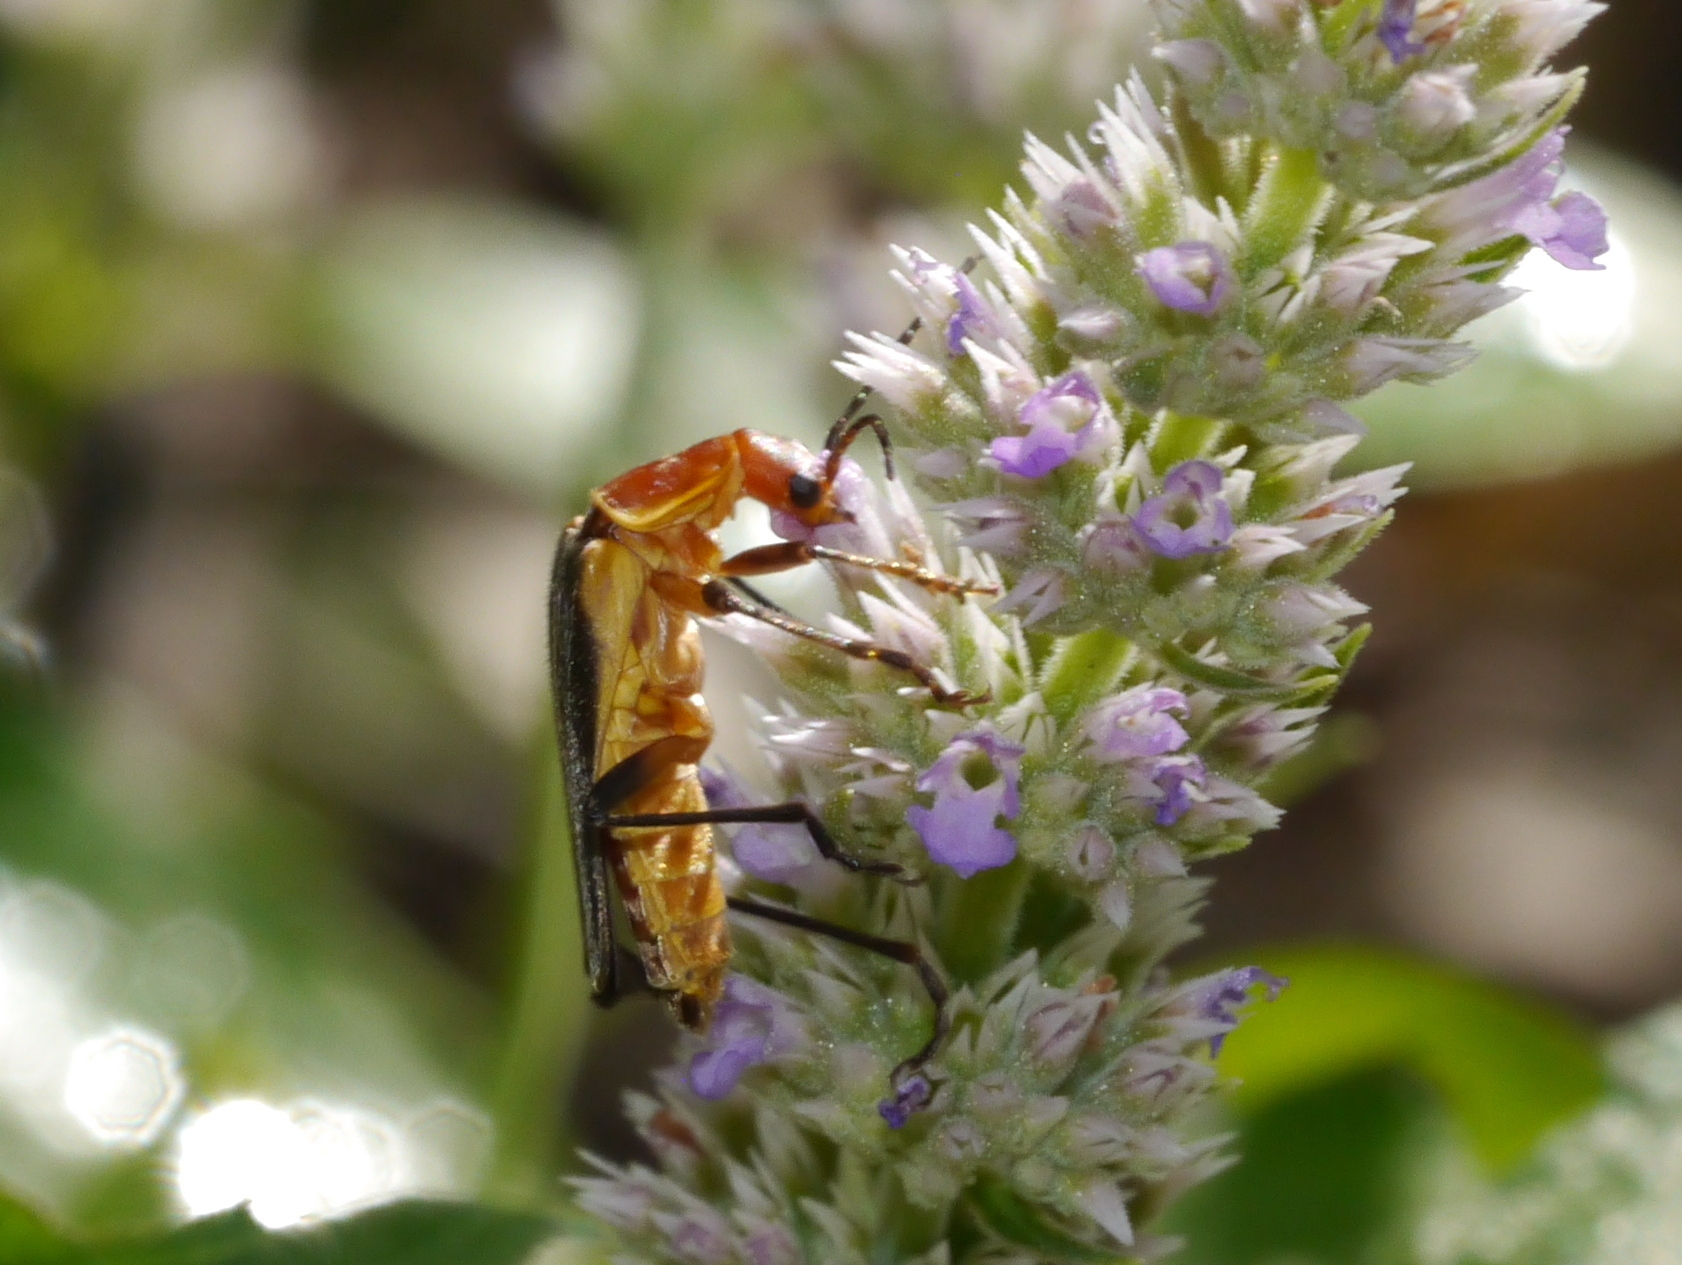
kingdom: Animalia
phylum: Arthropoda
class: Insecta
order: Coleoptera
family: Cantharidae
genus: Chauliognathus
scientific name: Chauliognathus obscurus
